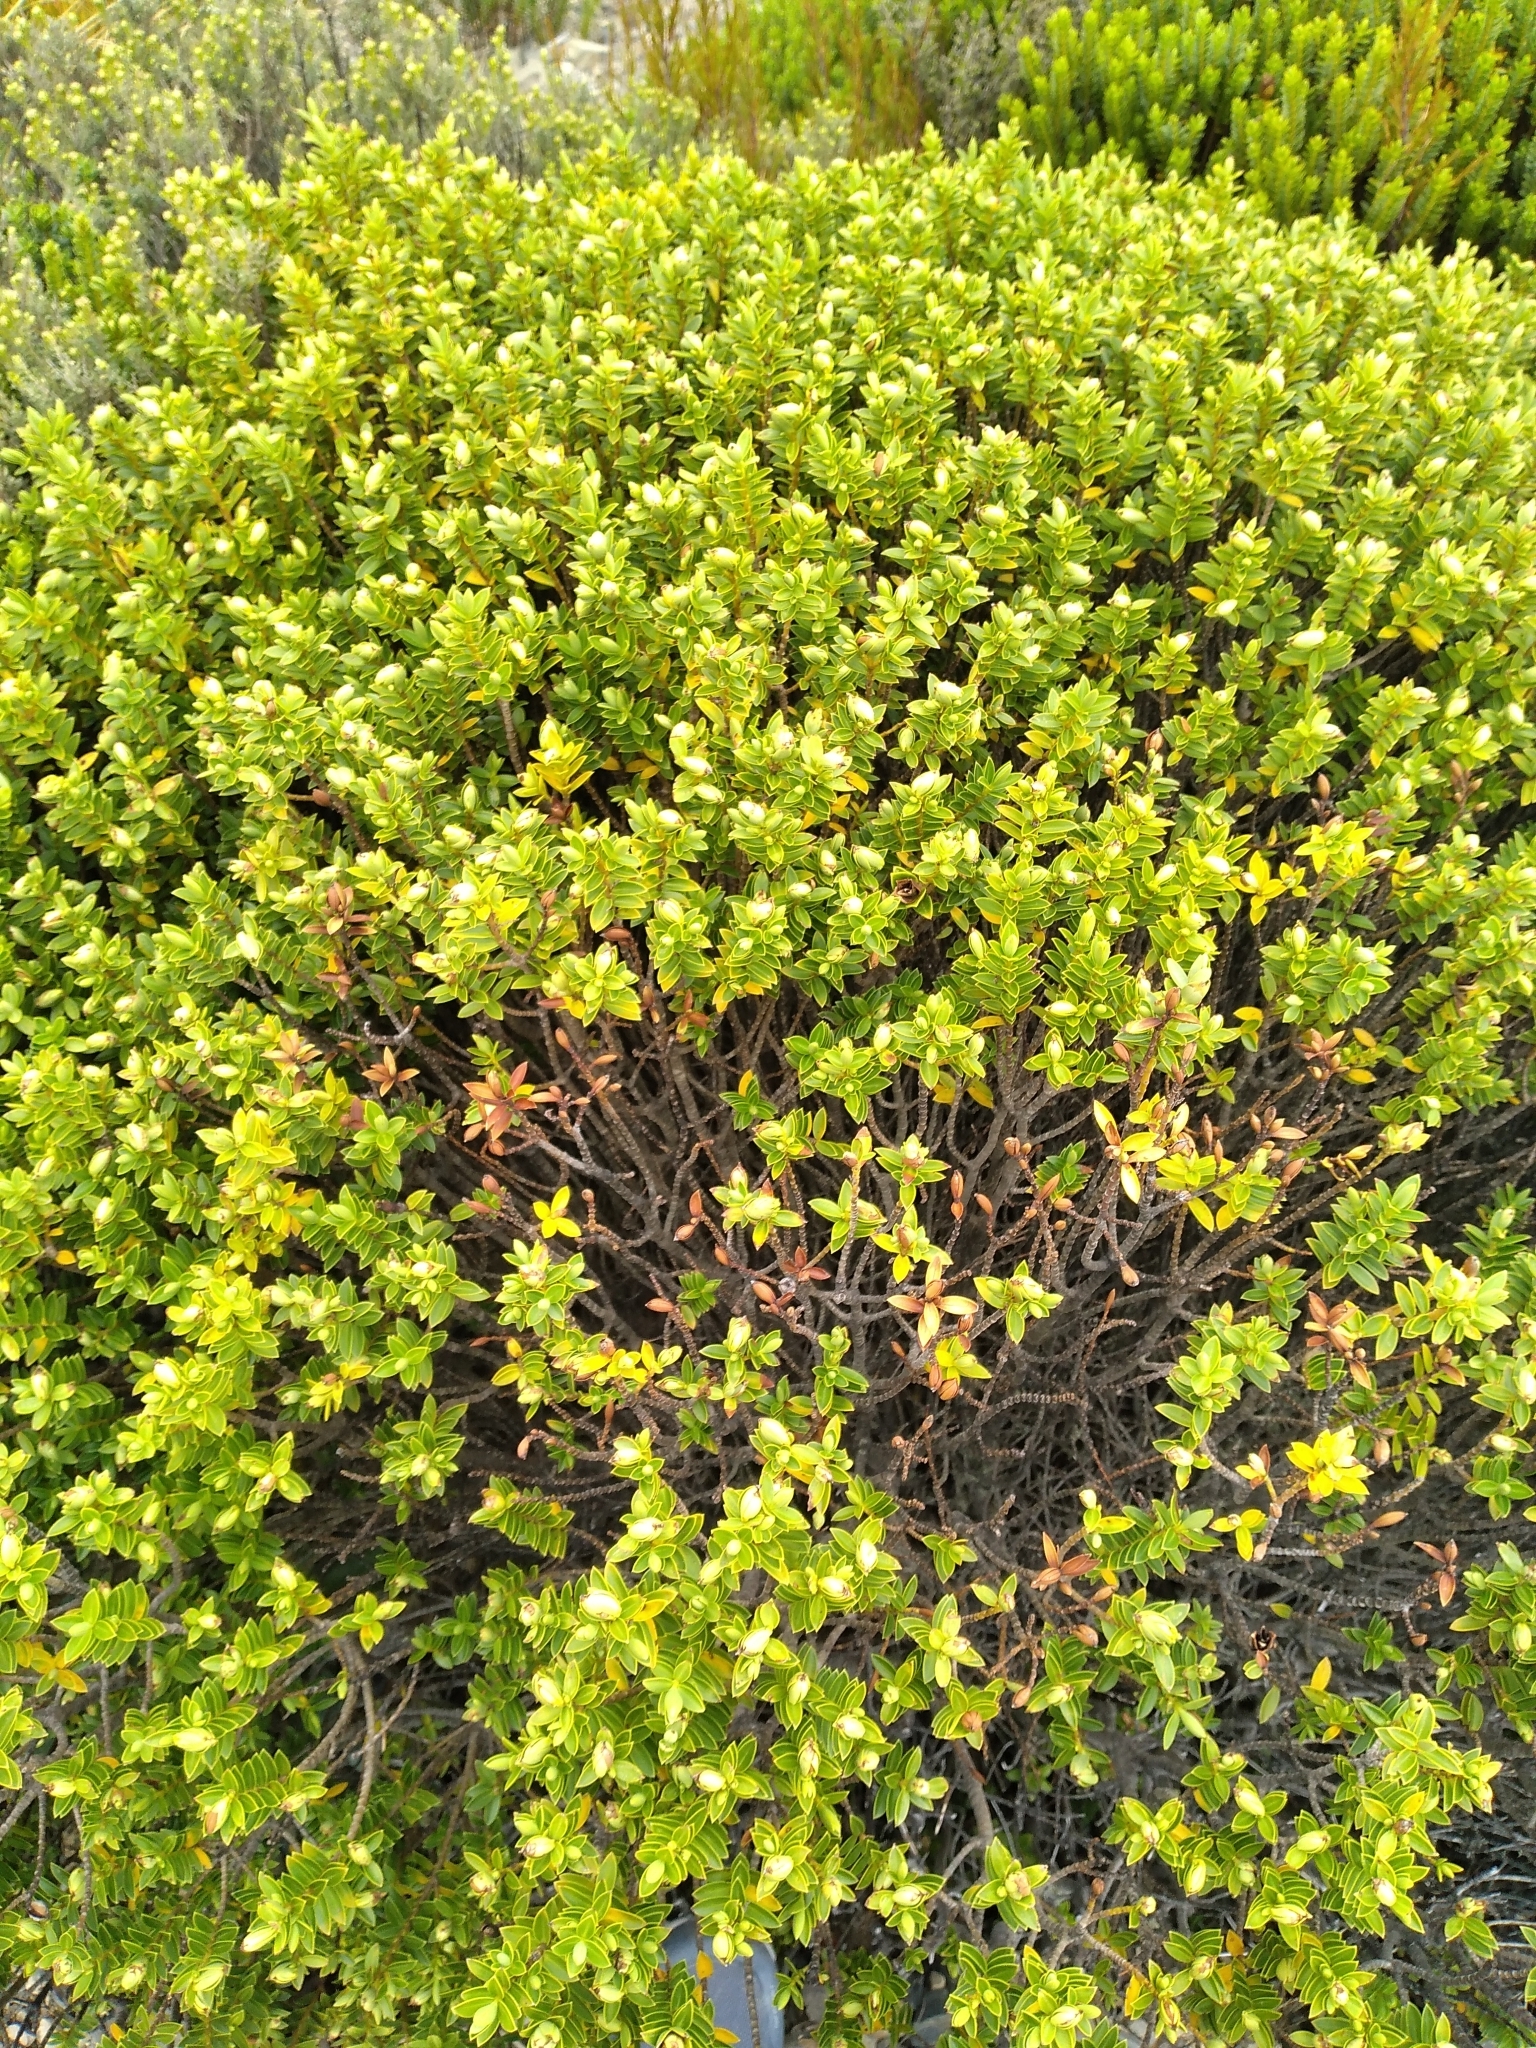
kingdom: Plantae
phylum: Tracheophyta
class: Magnoliopsida
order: Lamiales
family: Plantaginaceae
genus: Veronica
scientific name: Veronica odora
